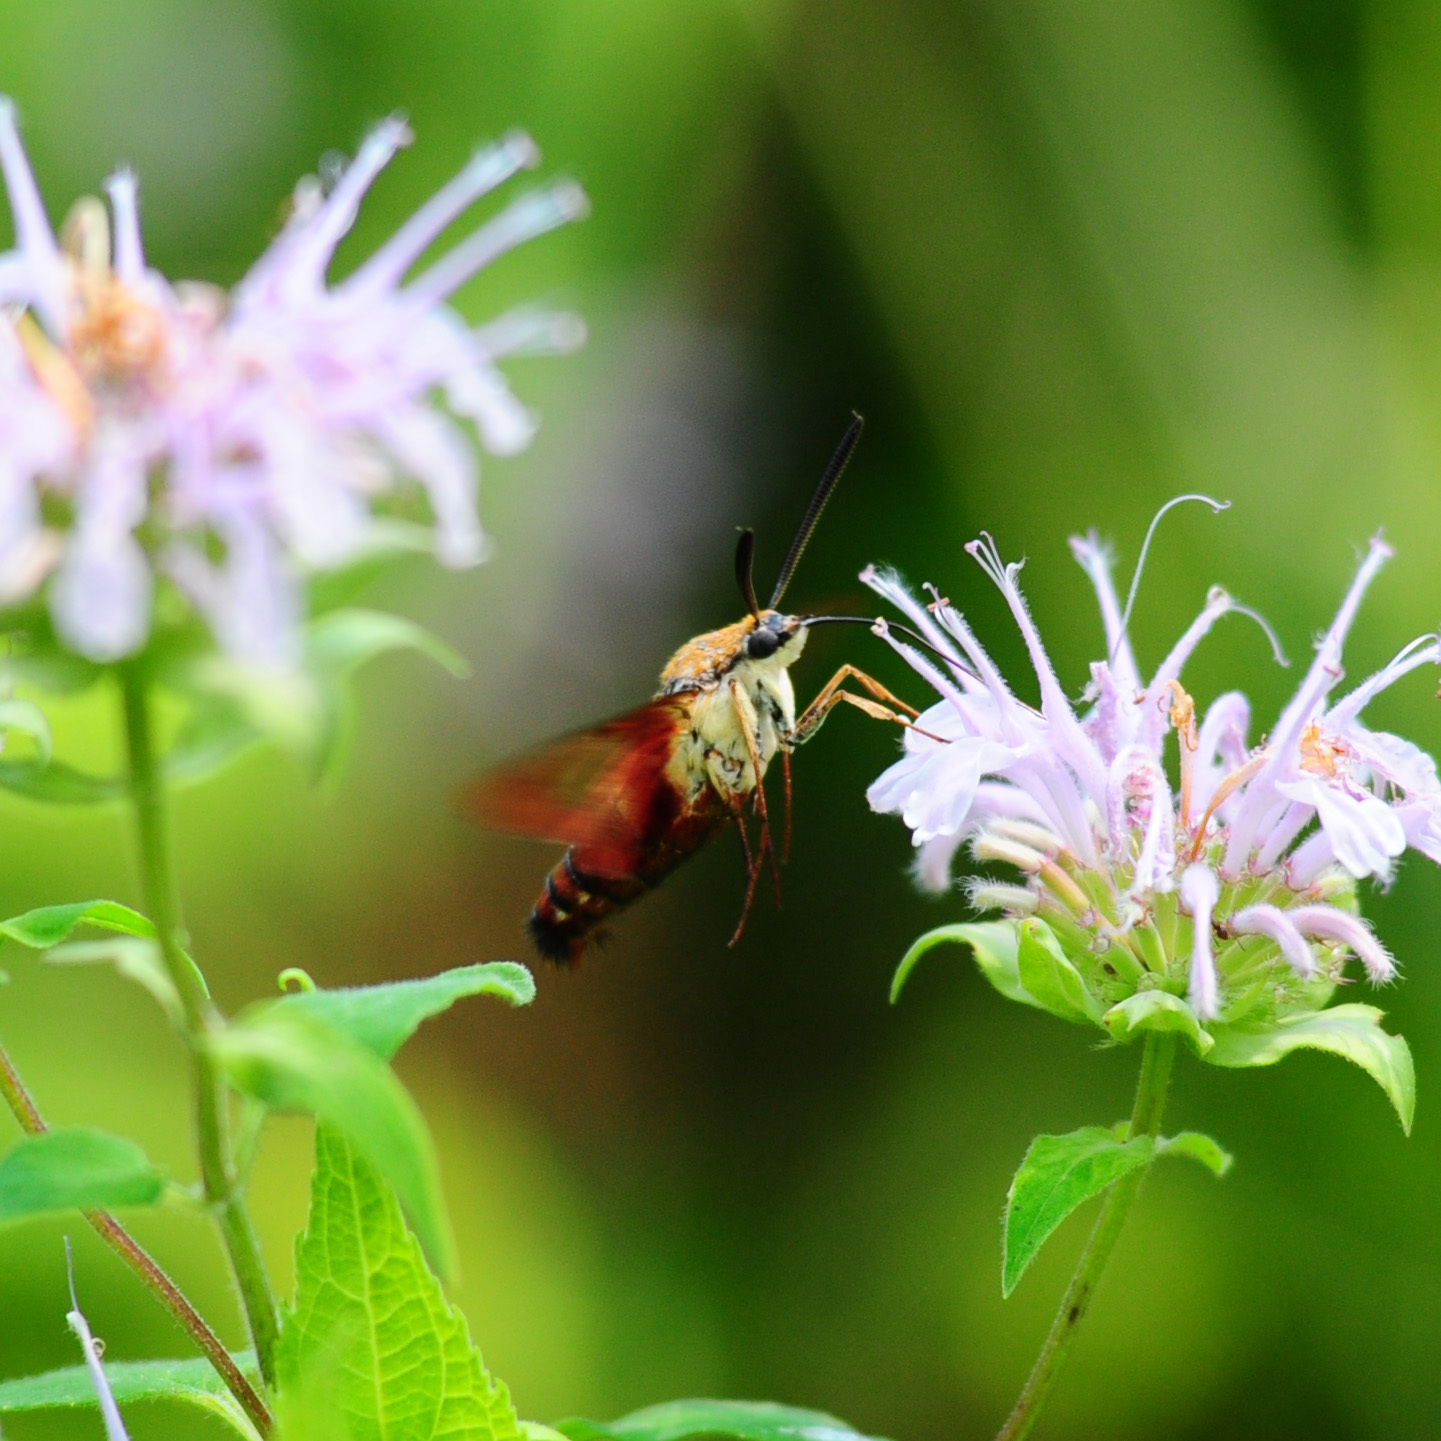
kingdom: Animalia
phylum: Arthropoda
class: Insecta
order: Lepidoptera
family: Sphingidae
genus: Hemaris
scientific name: Hemaris thysbe
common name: Common clear-wing
